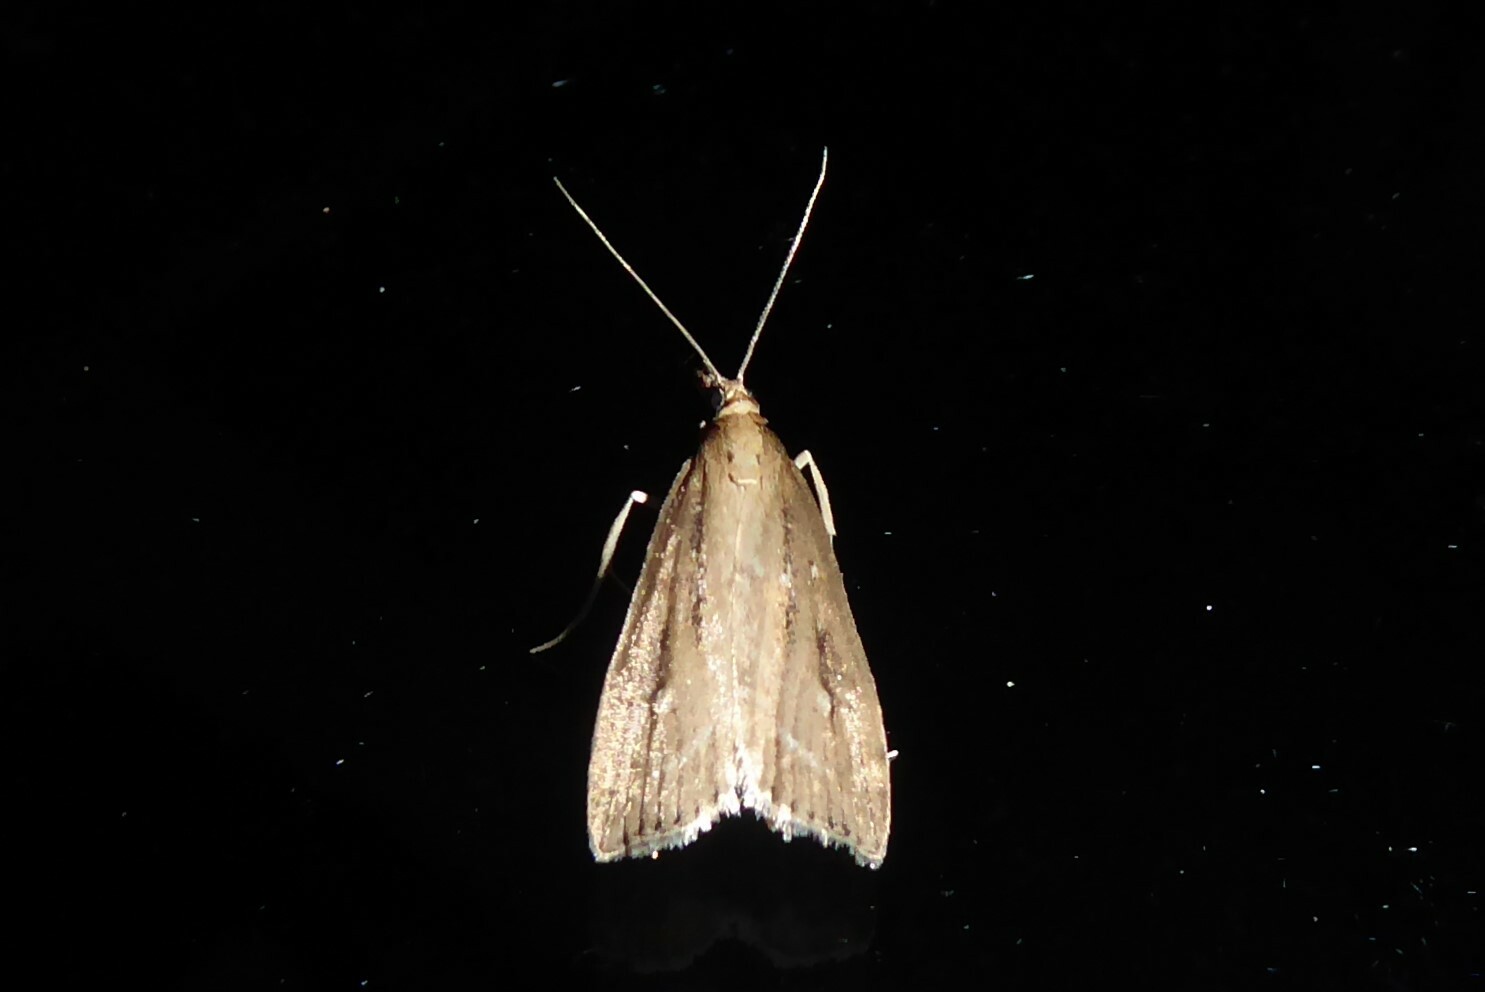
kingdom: Animalia
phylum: Arthropoda
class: Insecta
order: Lepidoptera
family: Crambidae
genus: Eudonia
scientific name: Eudonia octophora
